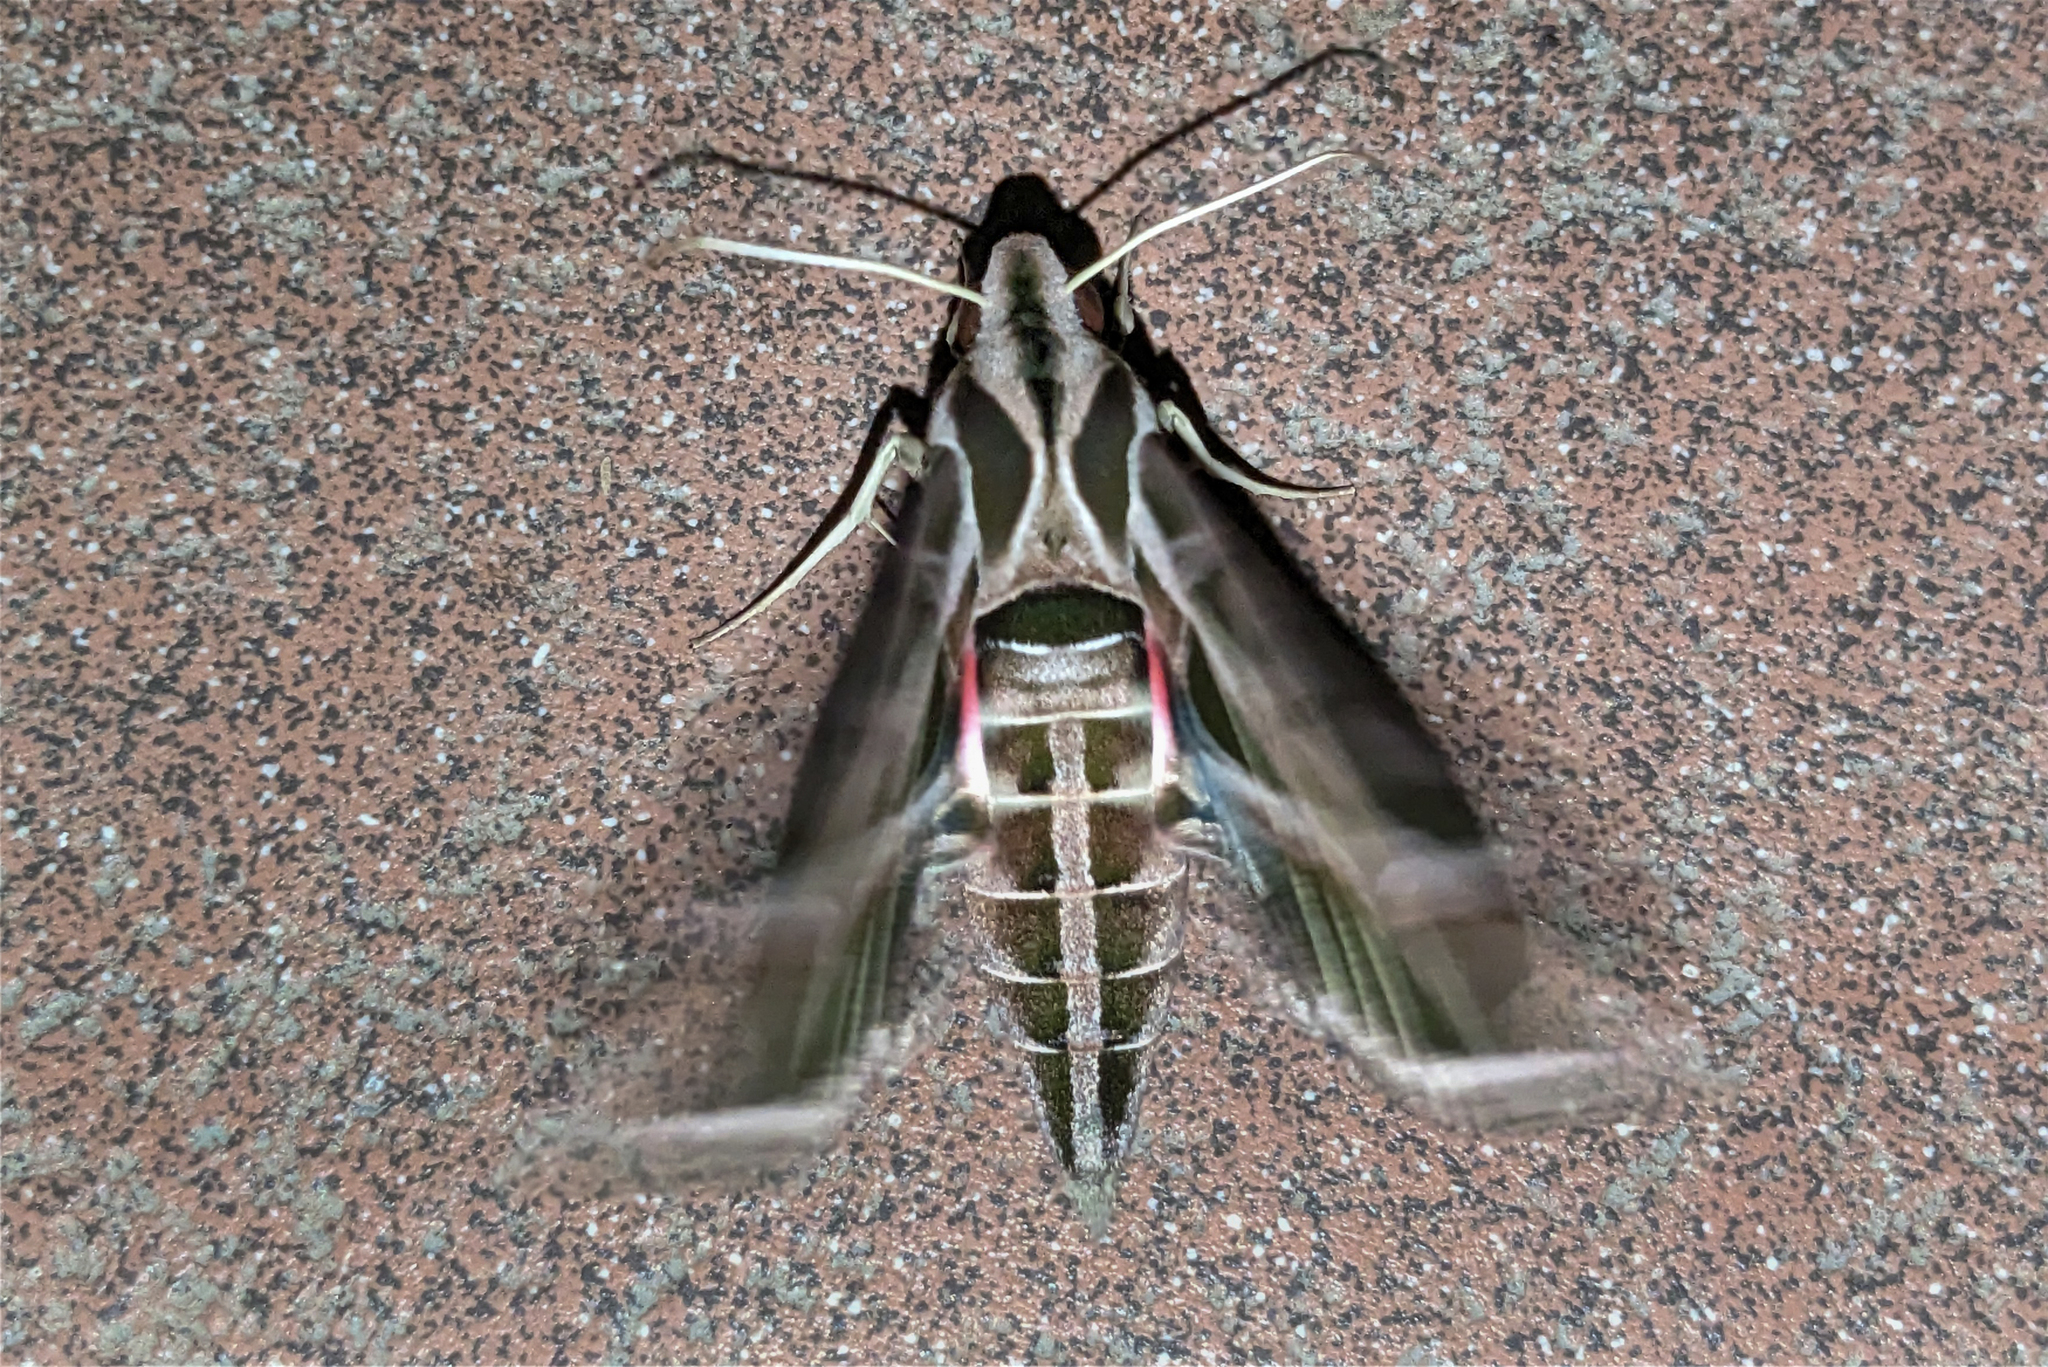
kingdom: Animalia
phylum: Arthropoda
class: Insecta
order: Lepidoptera
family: Sphingidae
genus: Eumorpha
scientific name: Eumorpha vitis
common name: Vine sphinx
